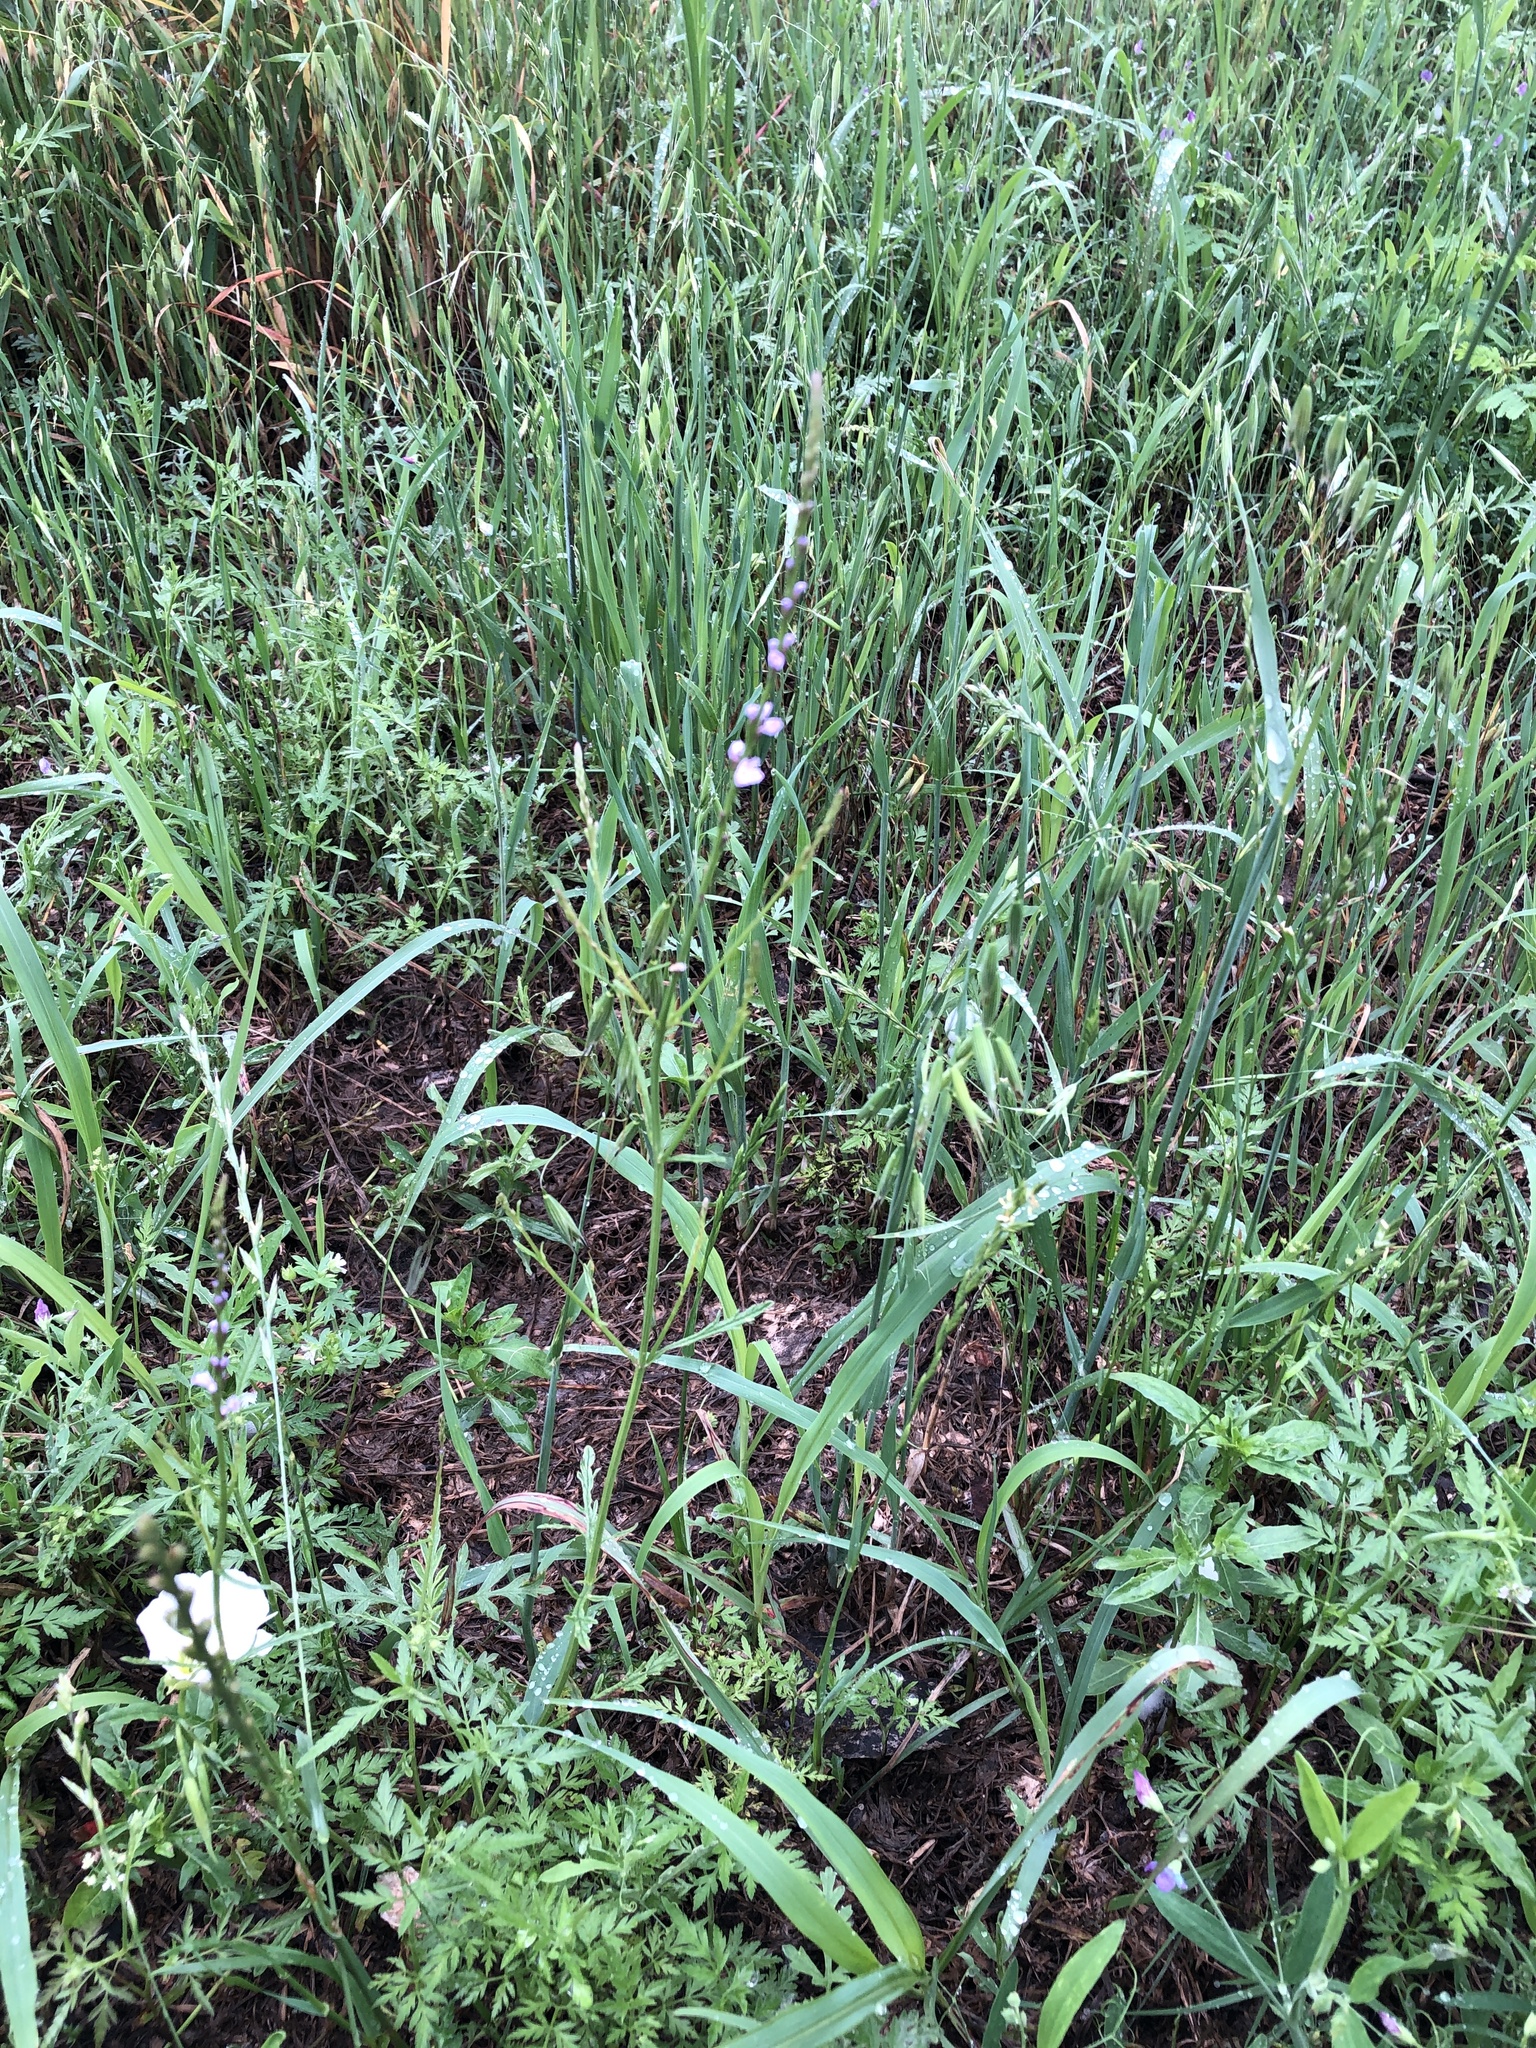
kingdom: Plantae
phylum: Tracheophyta
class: Magnoliopsida
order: Lamiales
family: Verbenaceae
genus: Verbena
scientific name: Verbena halei
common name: Texas vervain
